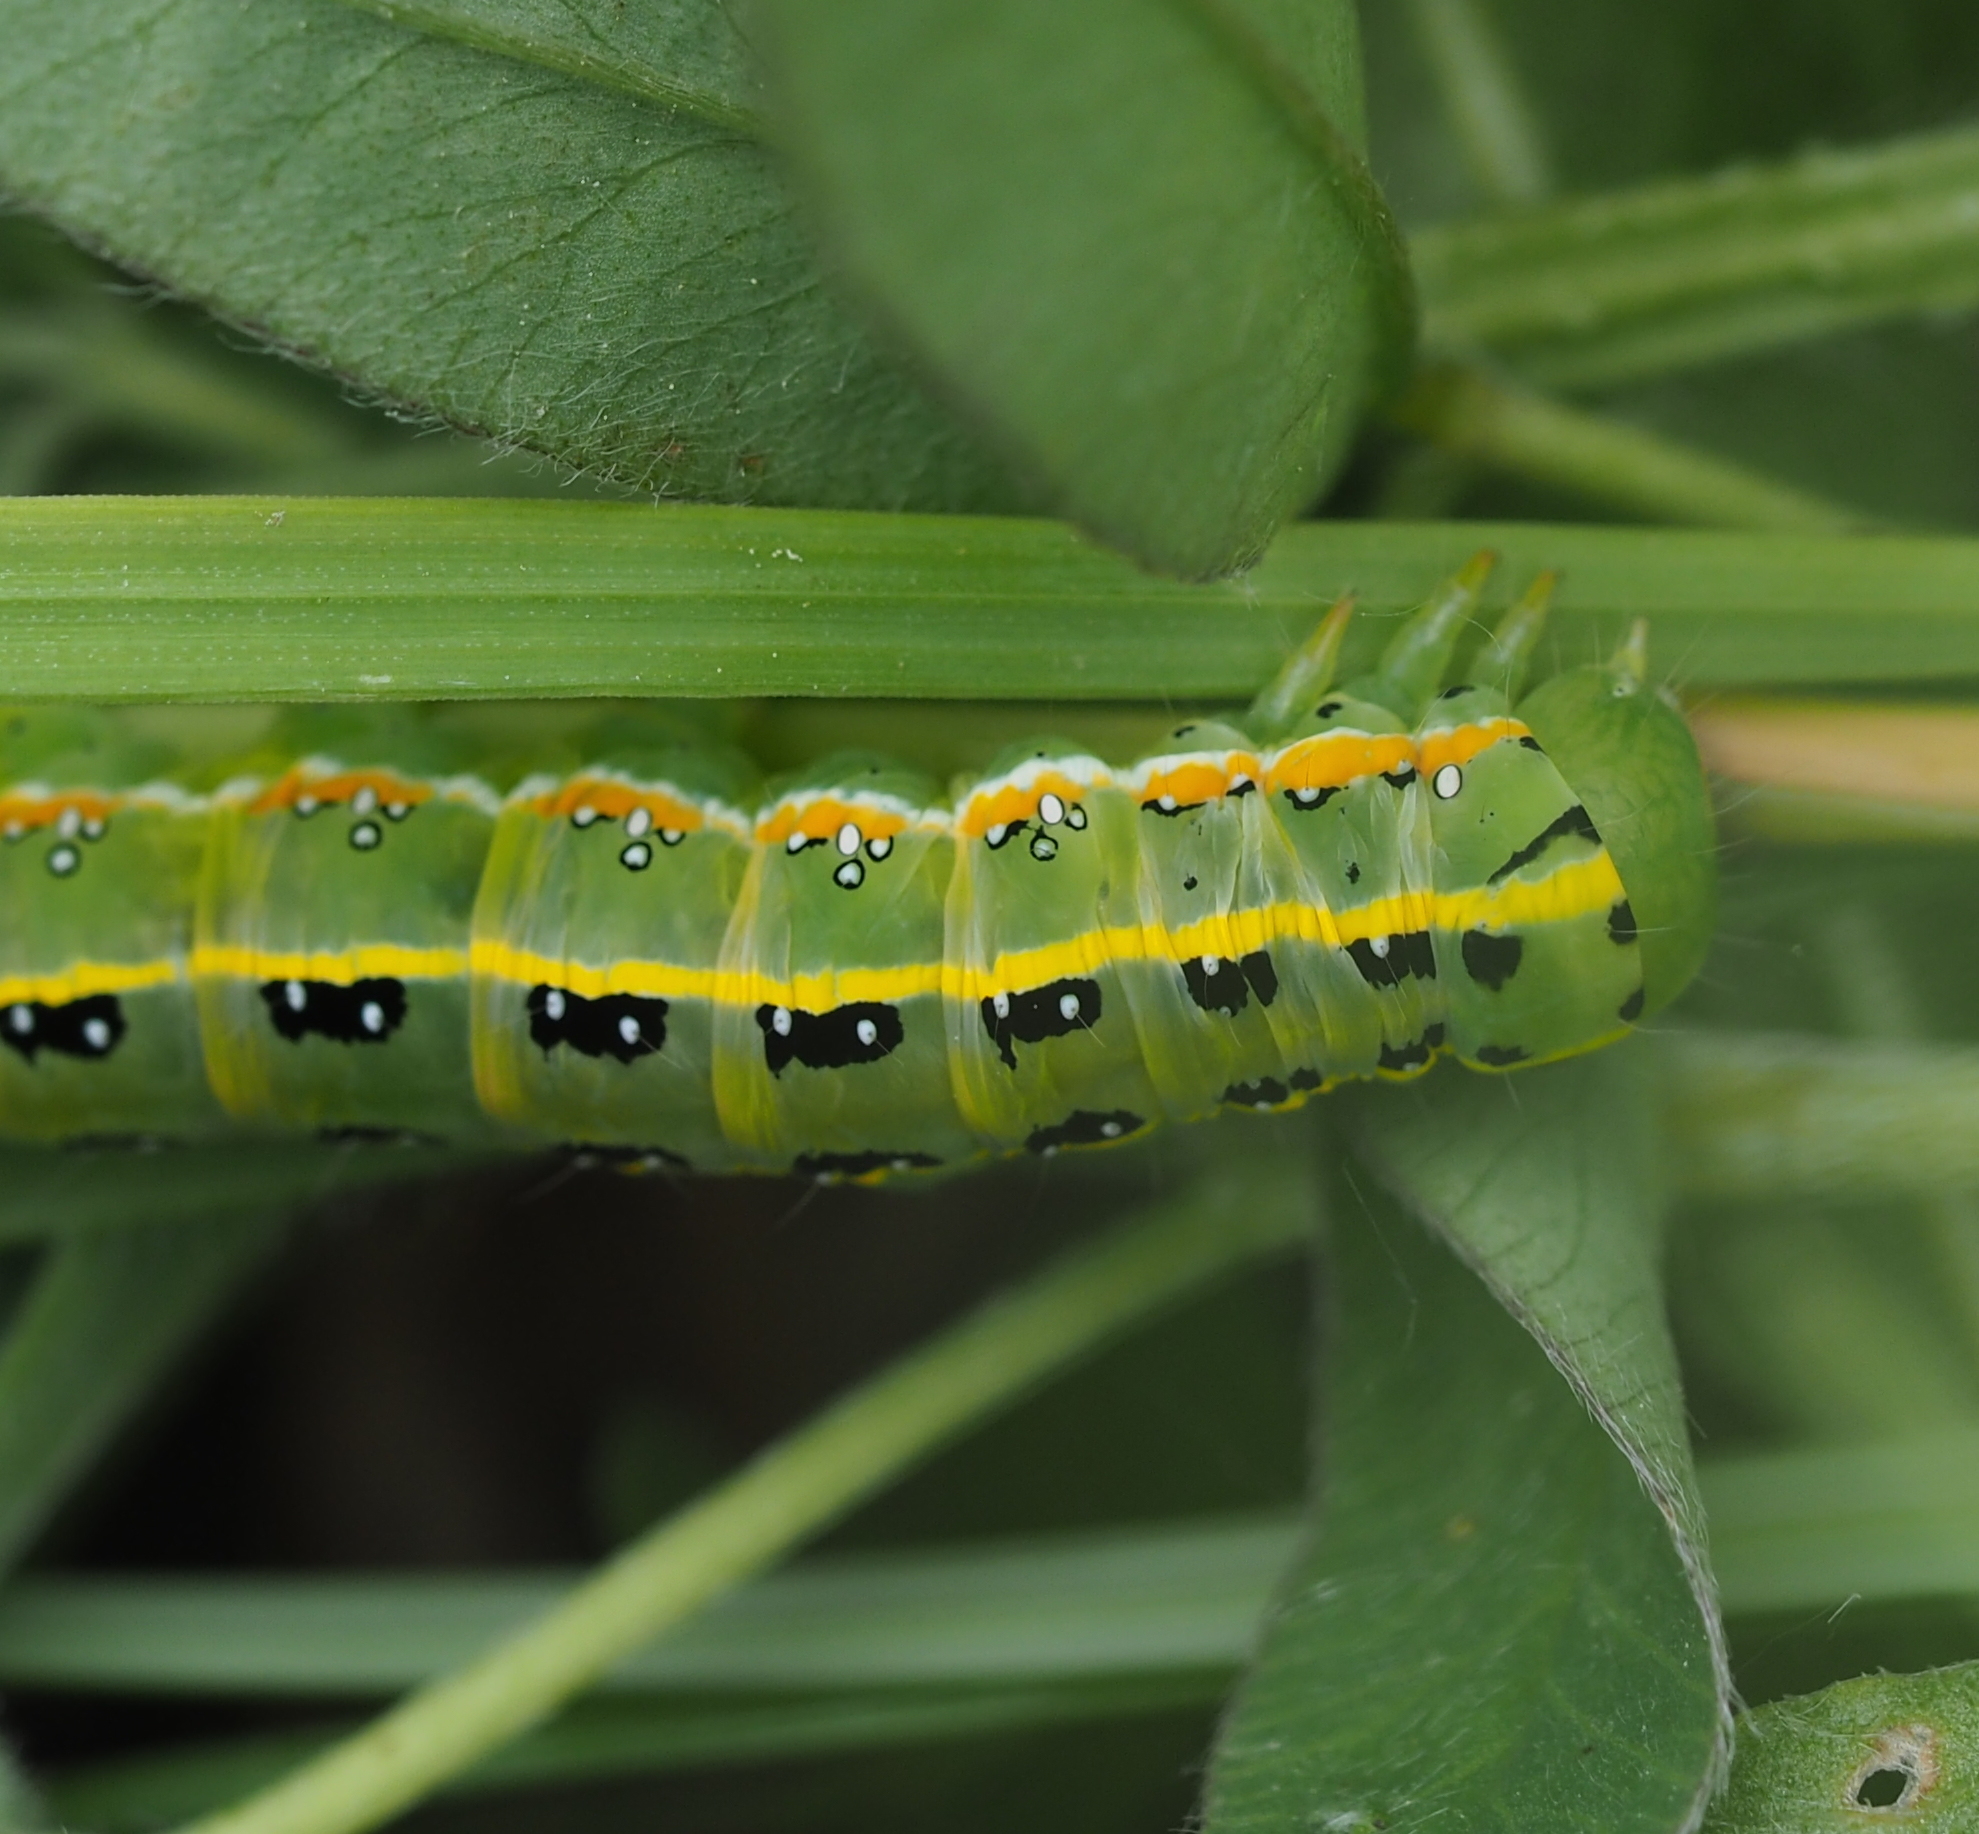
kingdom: Animalia
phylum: Arthropoda
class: Insecta
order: Lepidoptera
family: Noctuidae
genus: Xylena
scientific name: Xylena exsoleta
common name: Sword-grass
